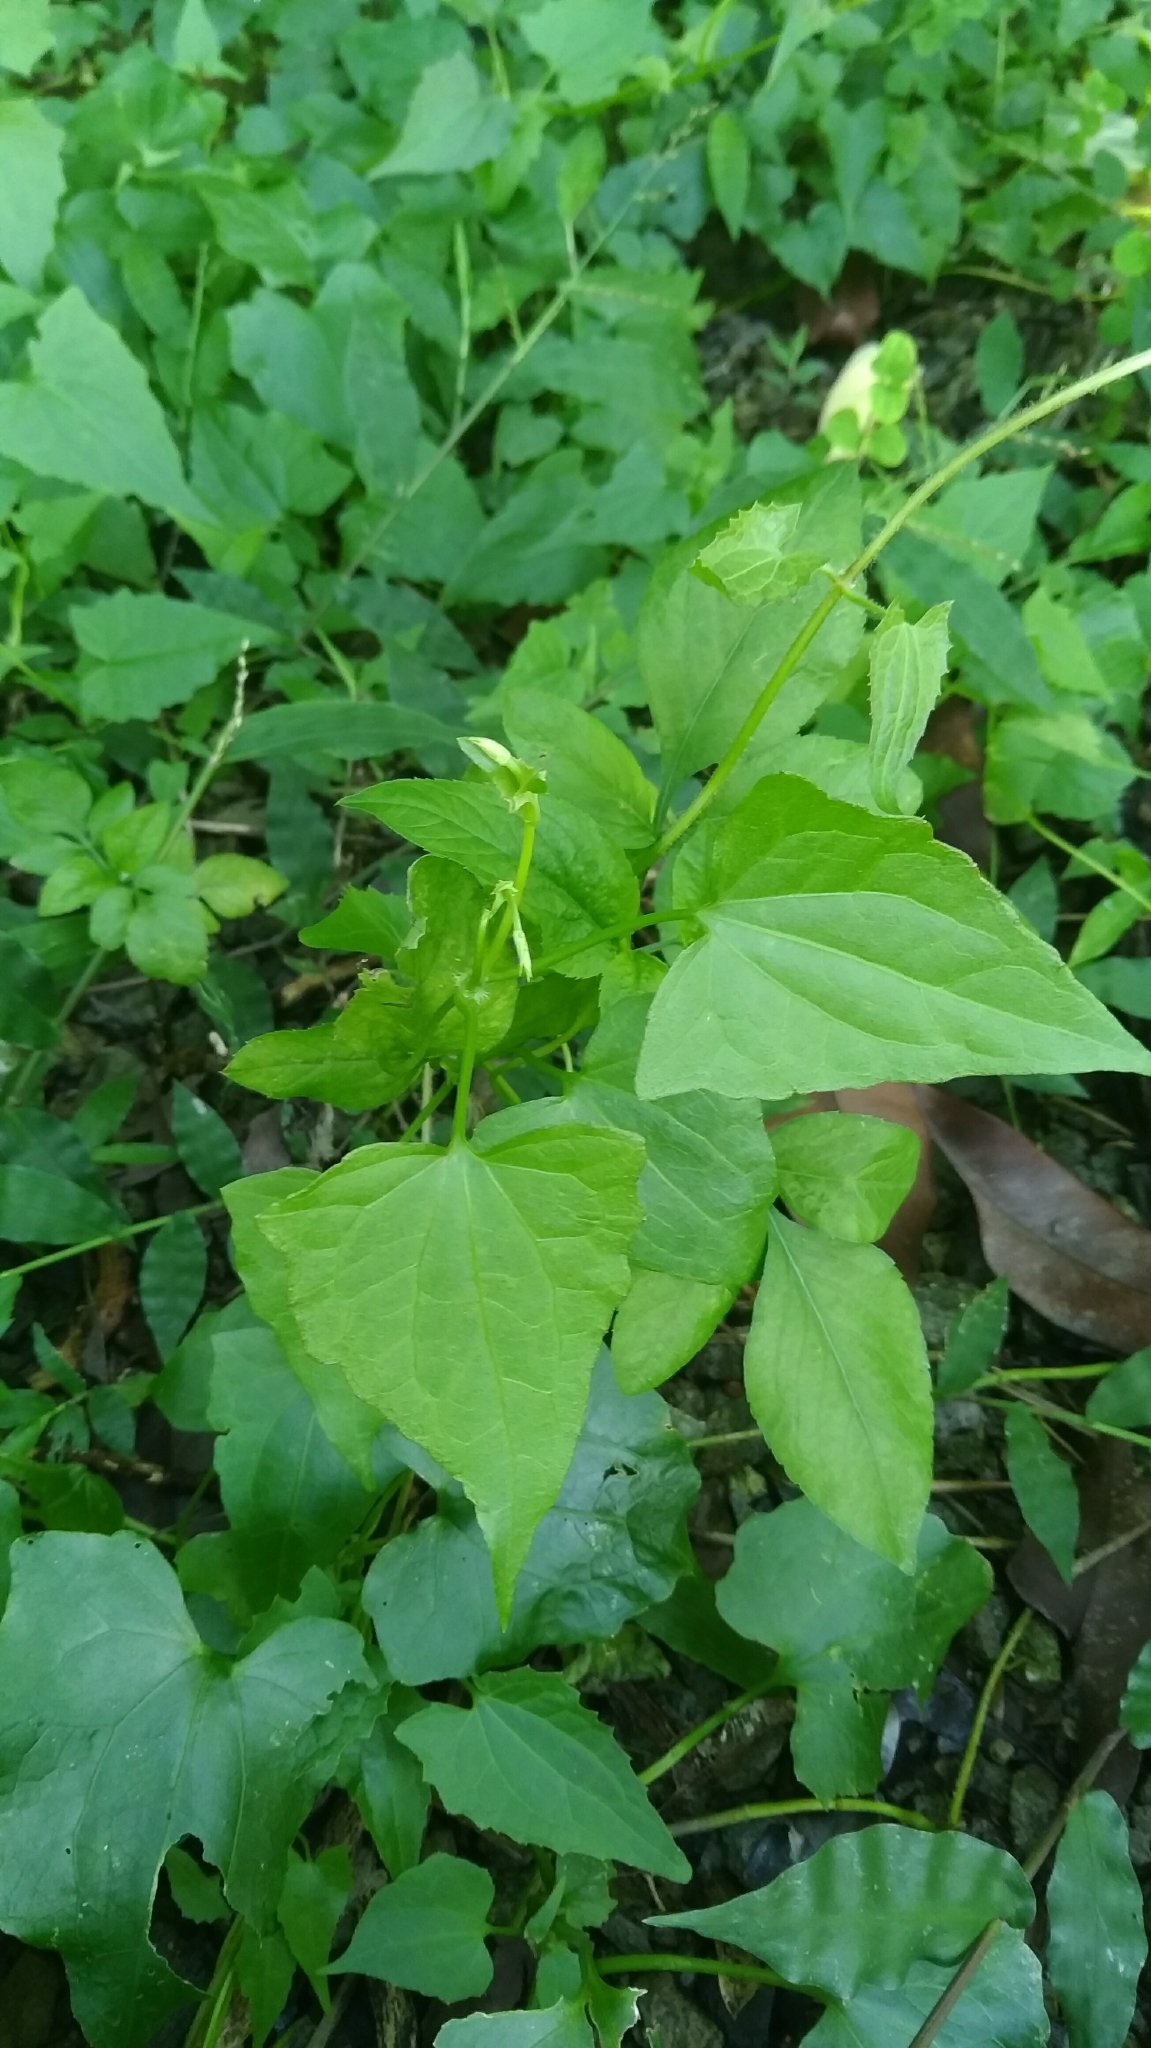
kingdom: Plantae
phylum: Tracheophyta
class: Magnoliopsida
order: Asterales
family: Asteraceae
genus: Mikania
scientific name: Mikania micrantha
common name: Mile-a-minute
